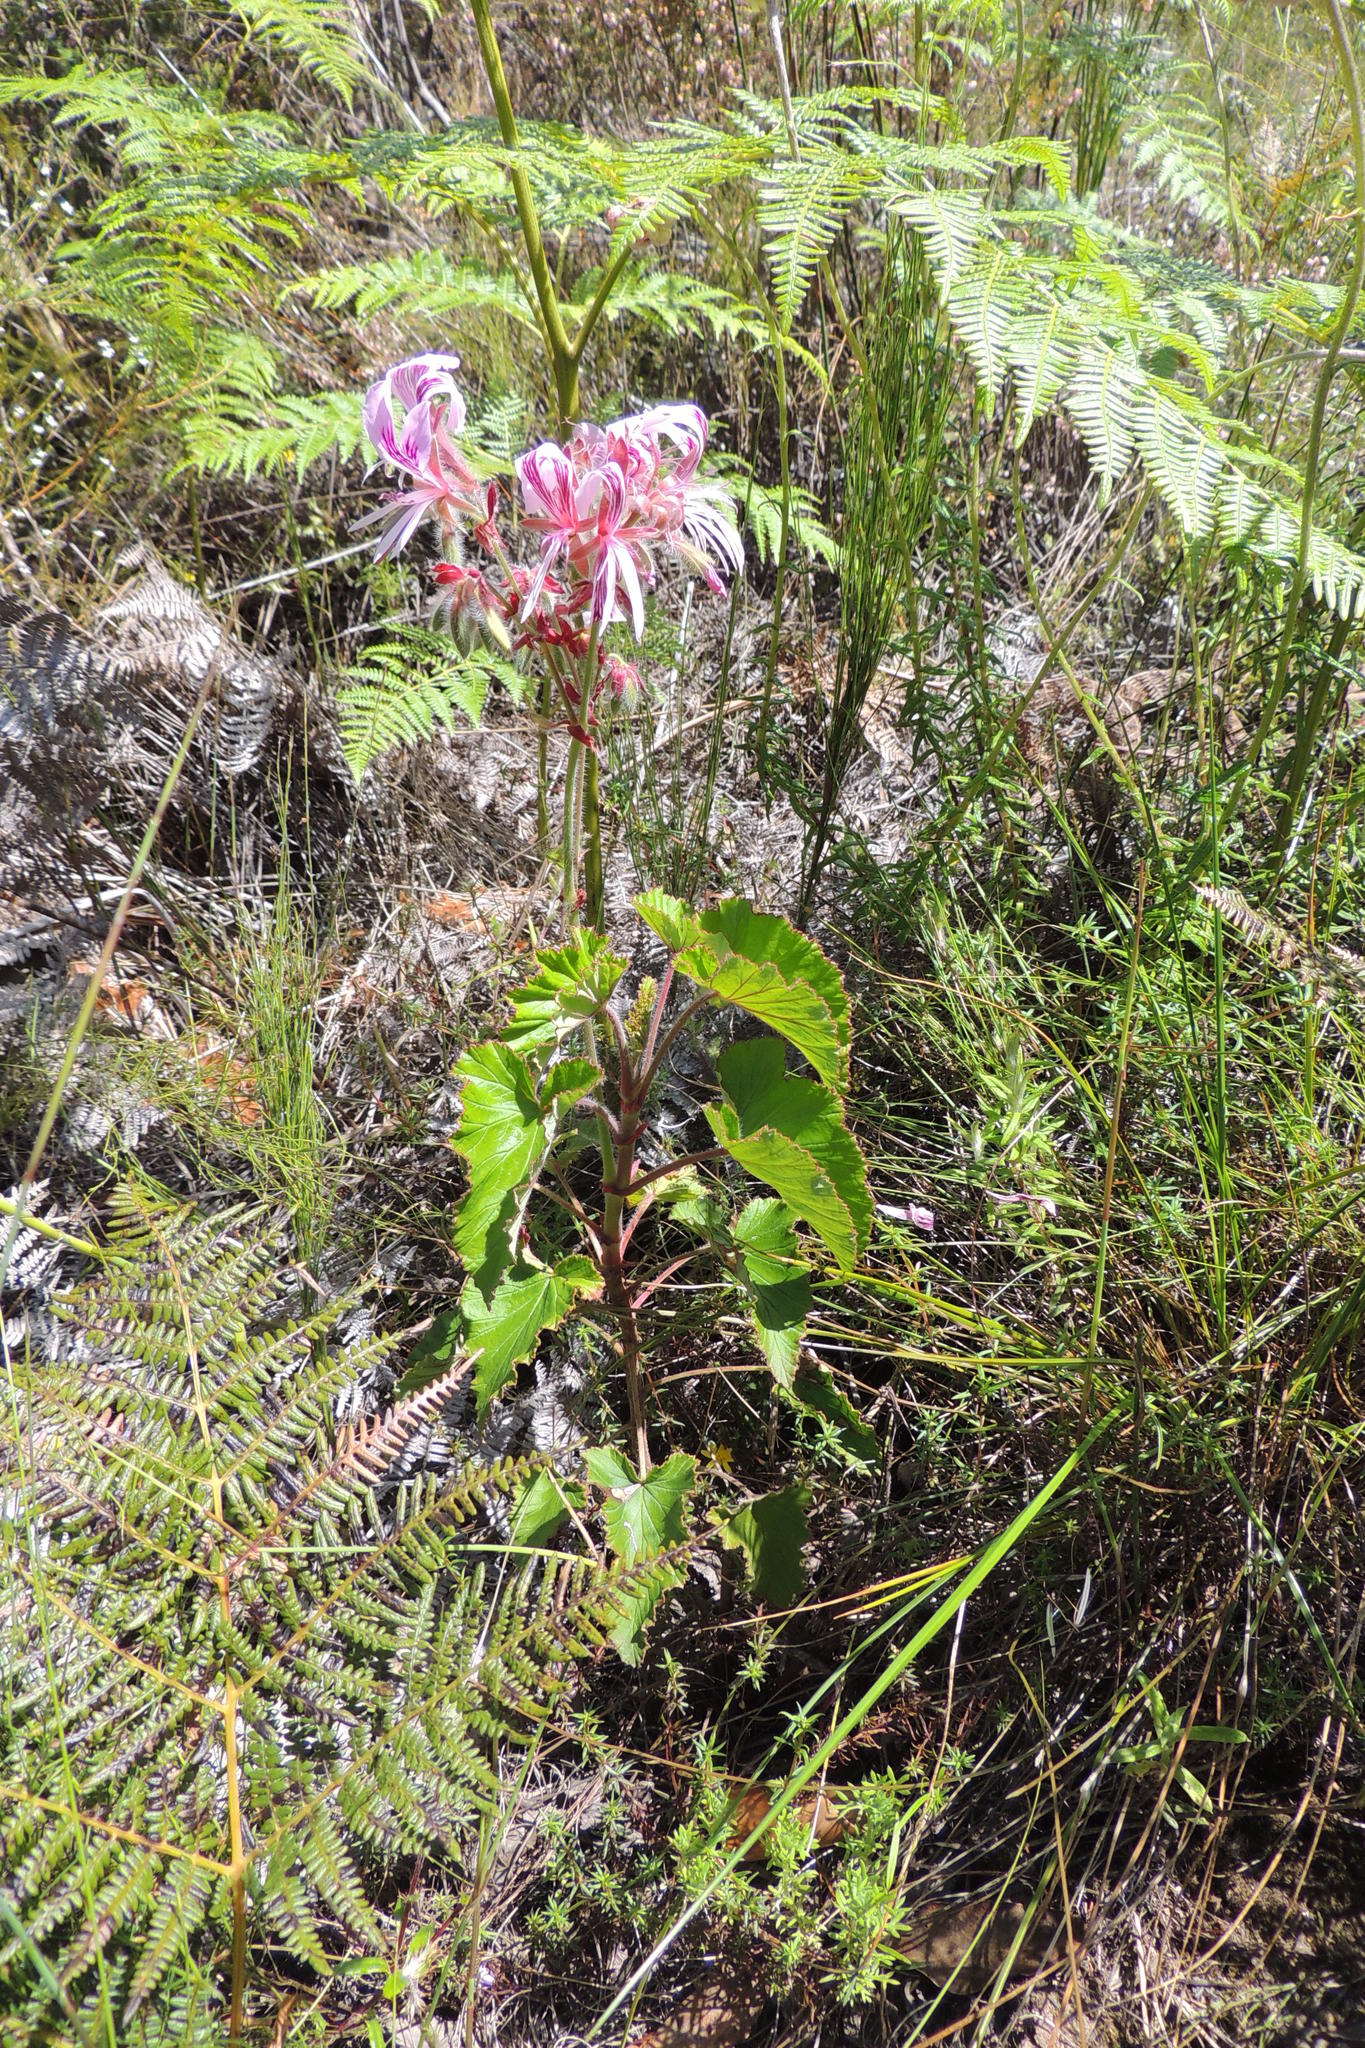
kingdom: Plantae
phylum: Tracheophyta
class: Magnoliopsida
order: Geraniales
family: Geraniaceae
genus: Pelargonium
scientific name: Pelargonium cordifolium
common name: Heart-leaf pelargonium
